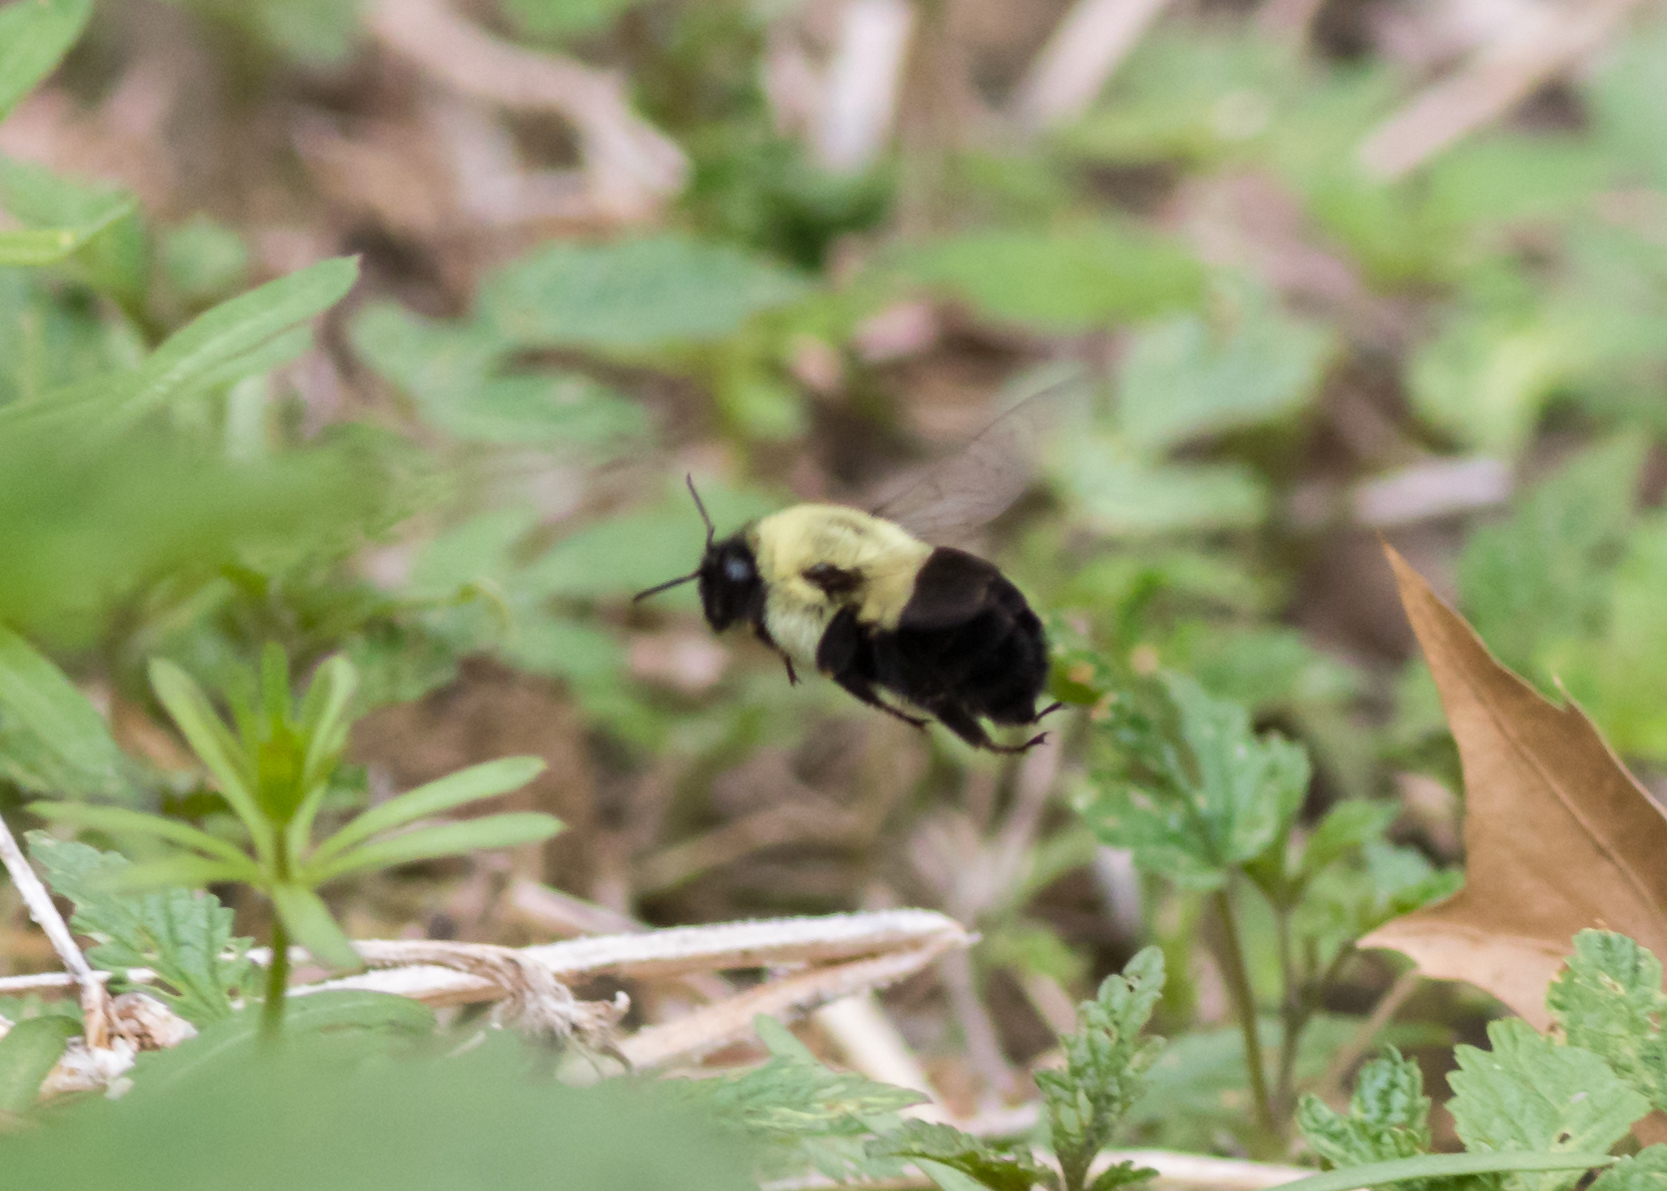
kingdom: Animalia
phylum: Arthropoda
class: Insecta
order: Hymenoptera
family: Apidae
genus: Bombus
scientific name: Bombus impatiens
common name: Common eastern bumble bee
